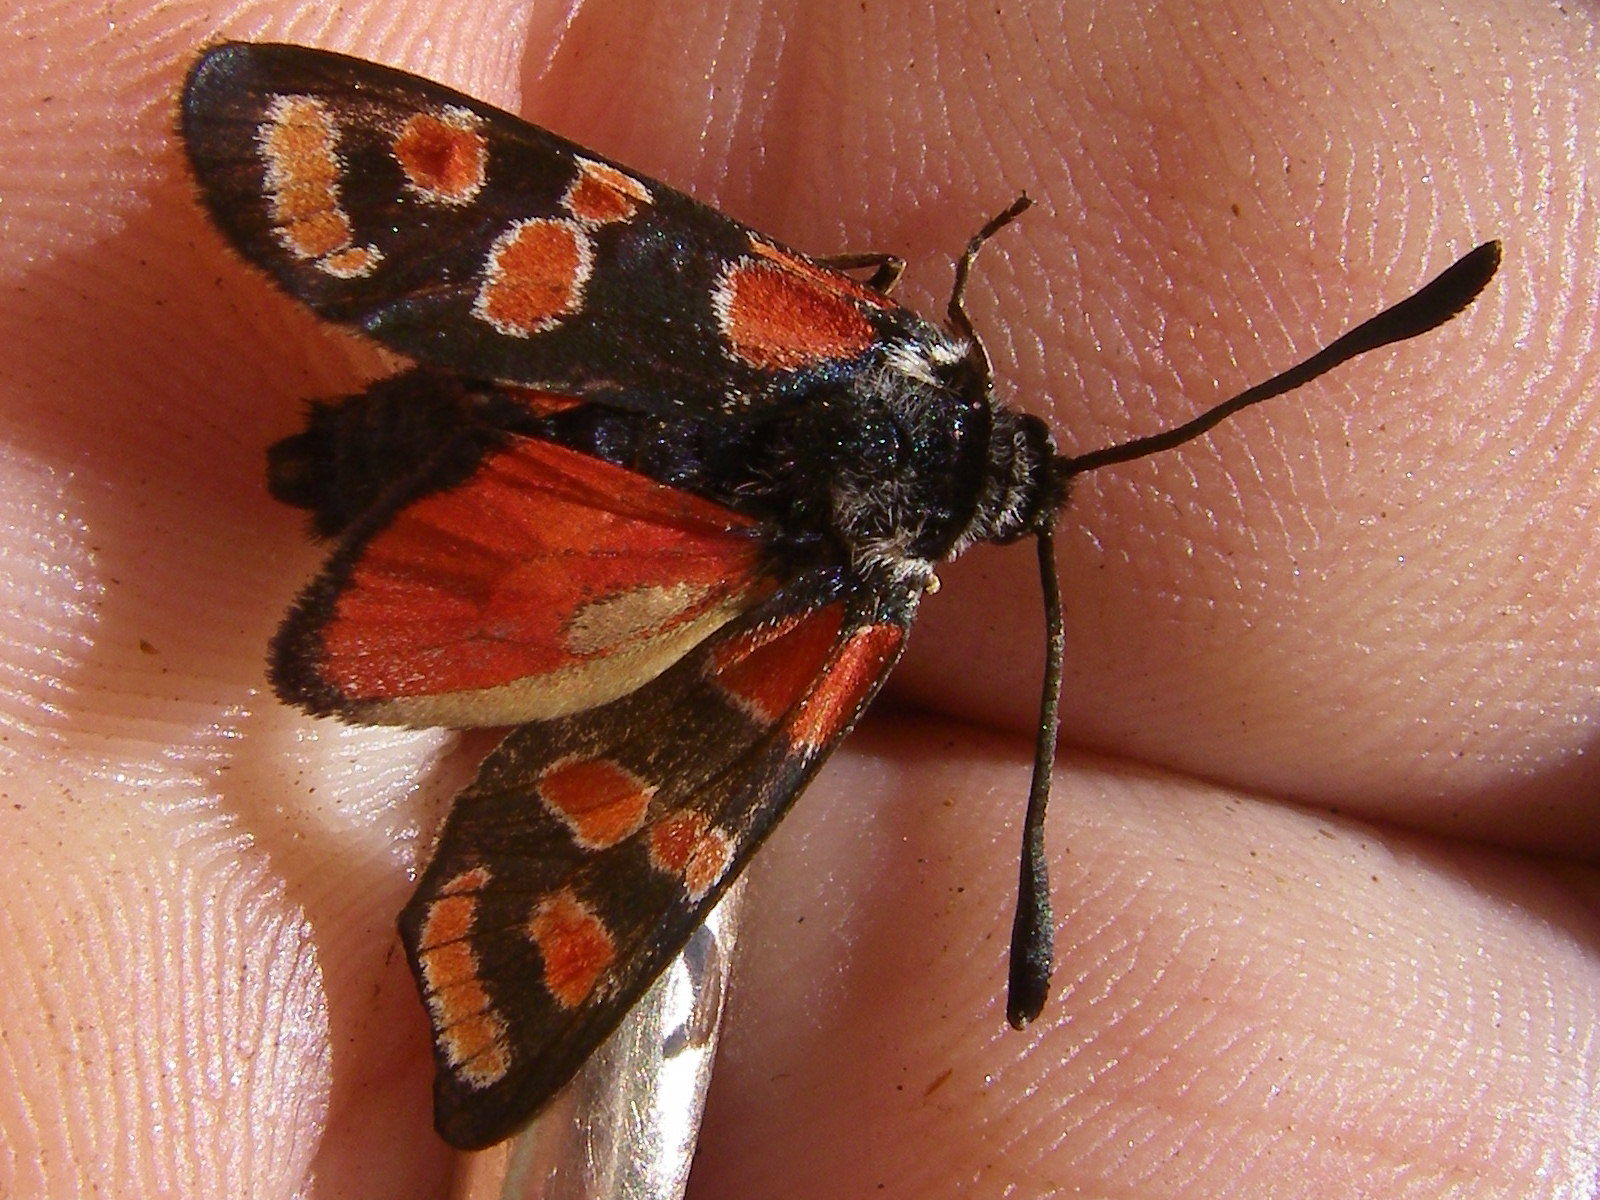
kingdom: Animalia
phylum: Arthropoda
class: Insecta
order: Lepidoptera
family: Zygaenidae
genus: Zygaena
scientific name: Zygaena carniolica
